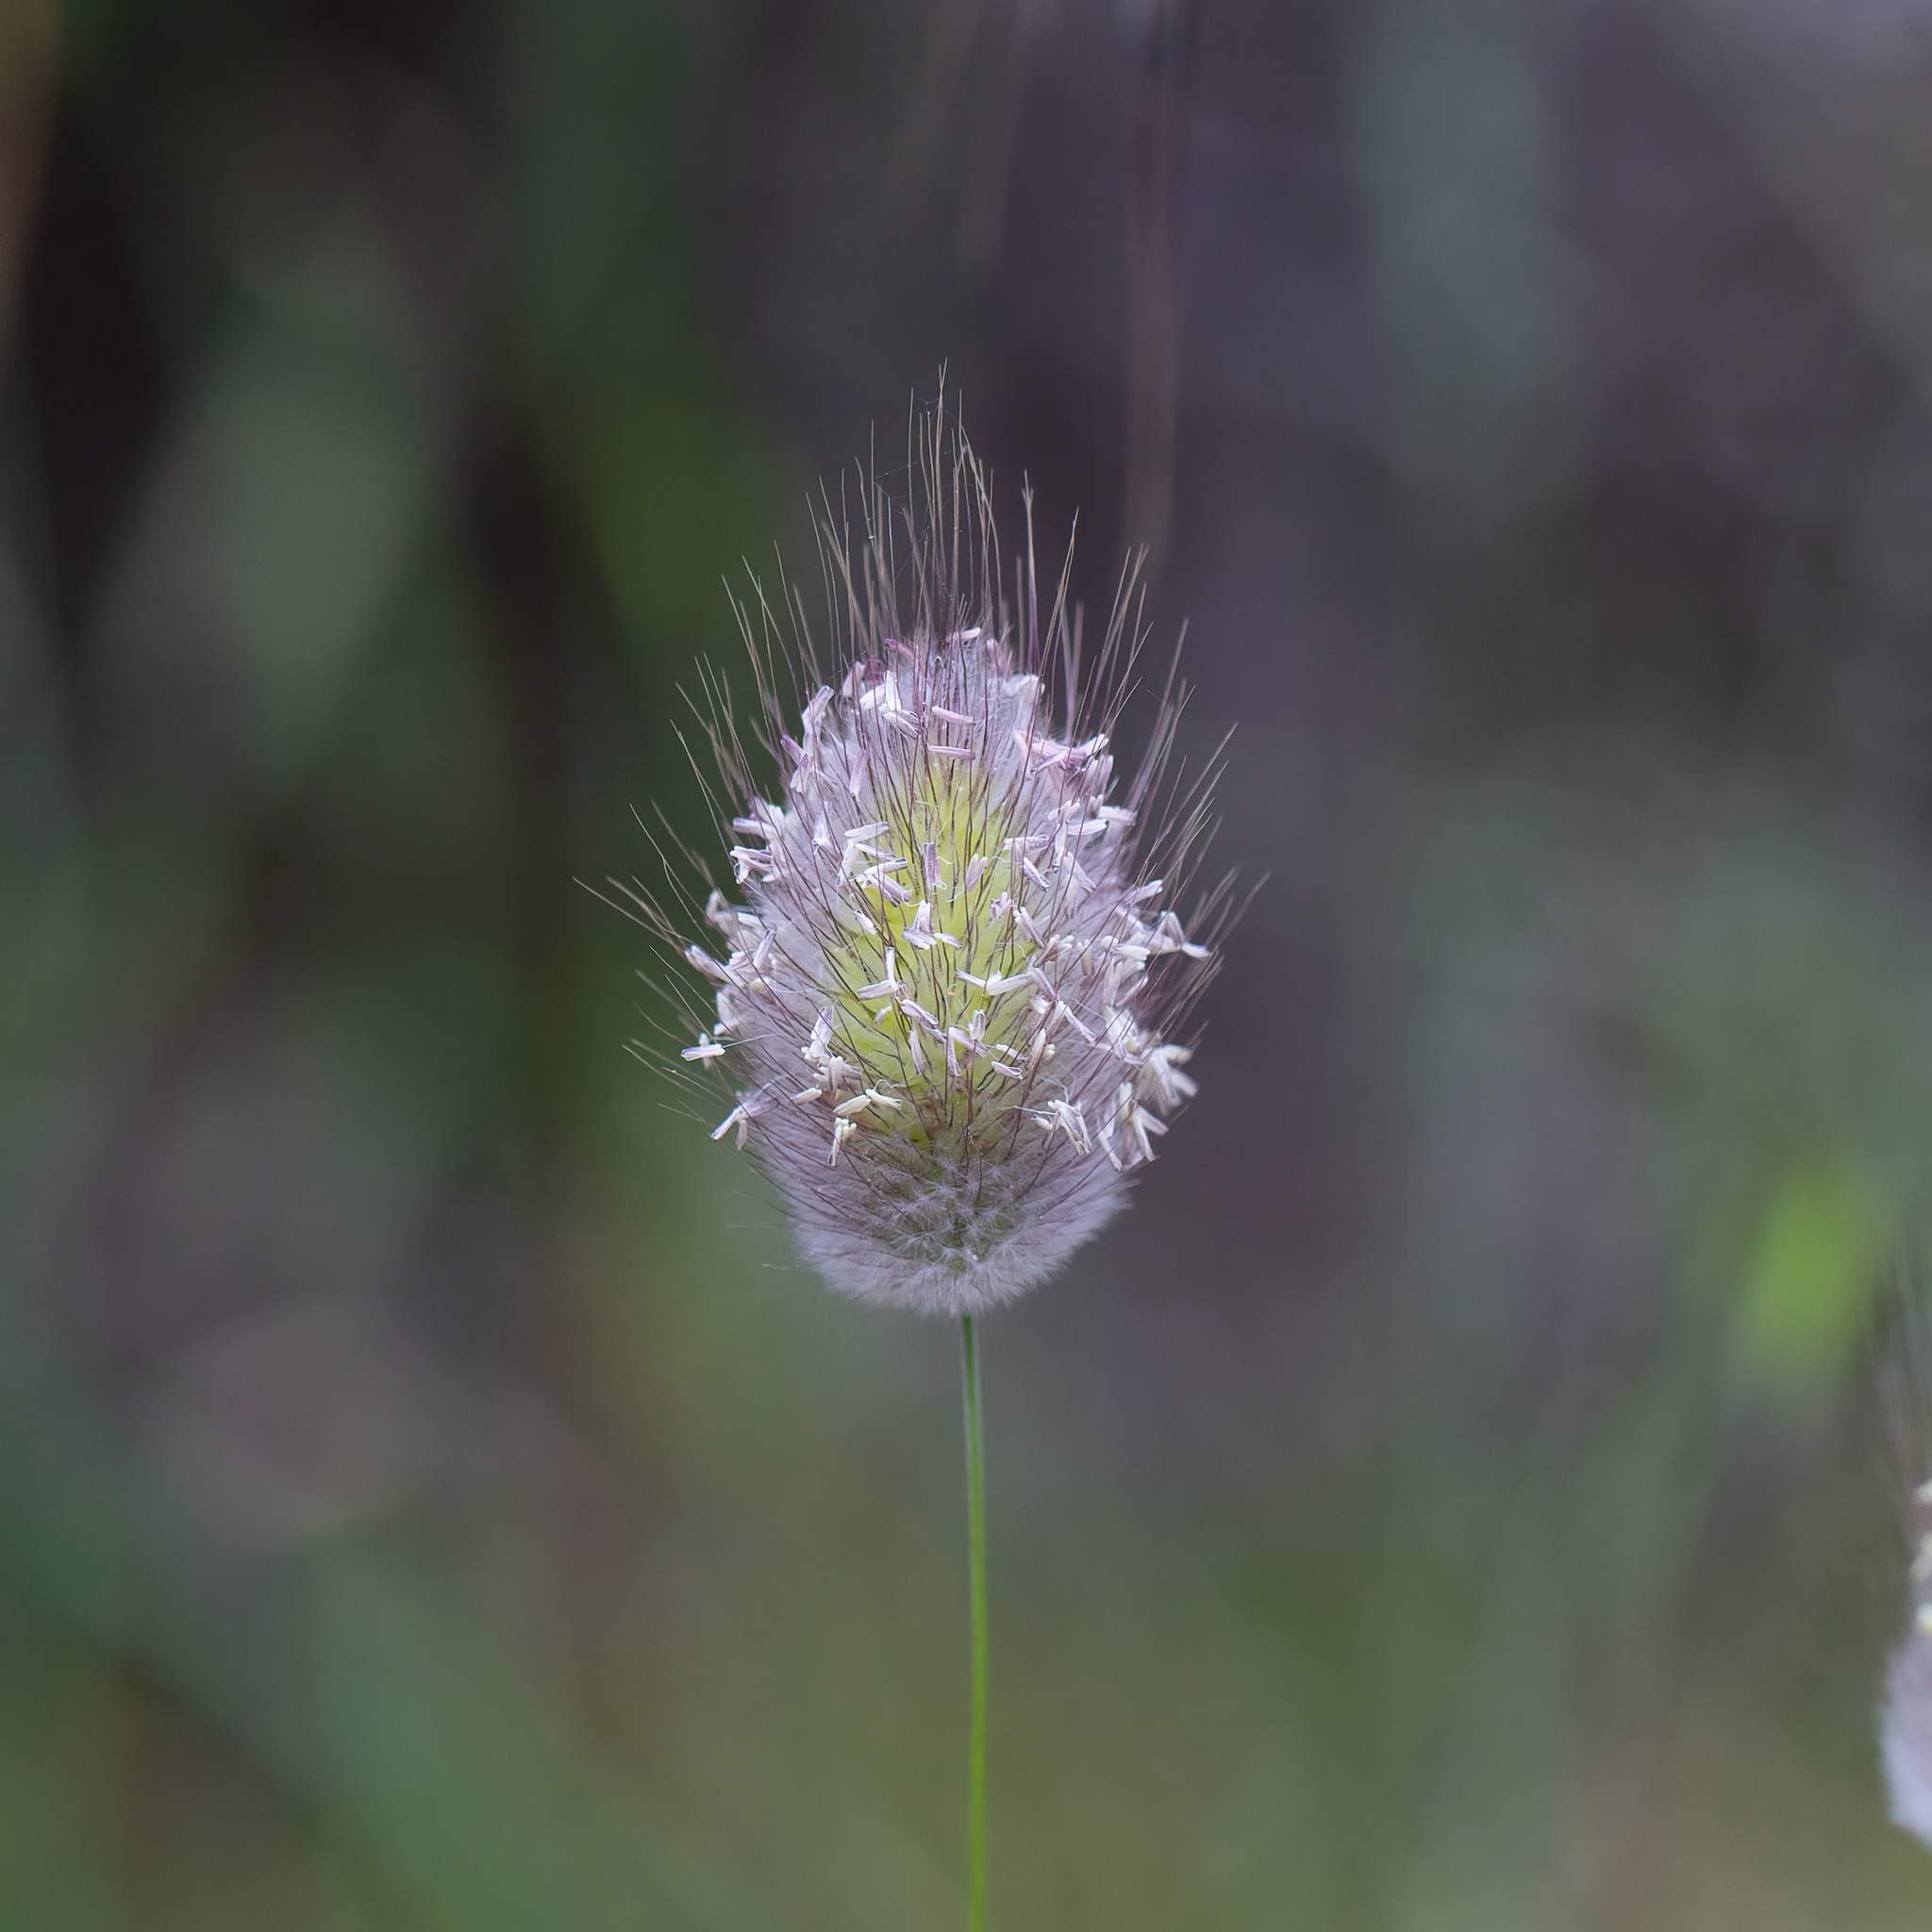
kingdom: Plantae
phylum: Tracheophyta
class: Liliopsida
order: Poales
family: Poaceae
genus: Lagurus
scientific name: Lagurus ovatus
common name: Hare's-tail
